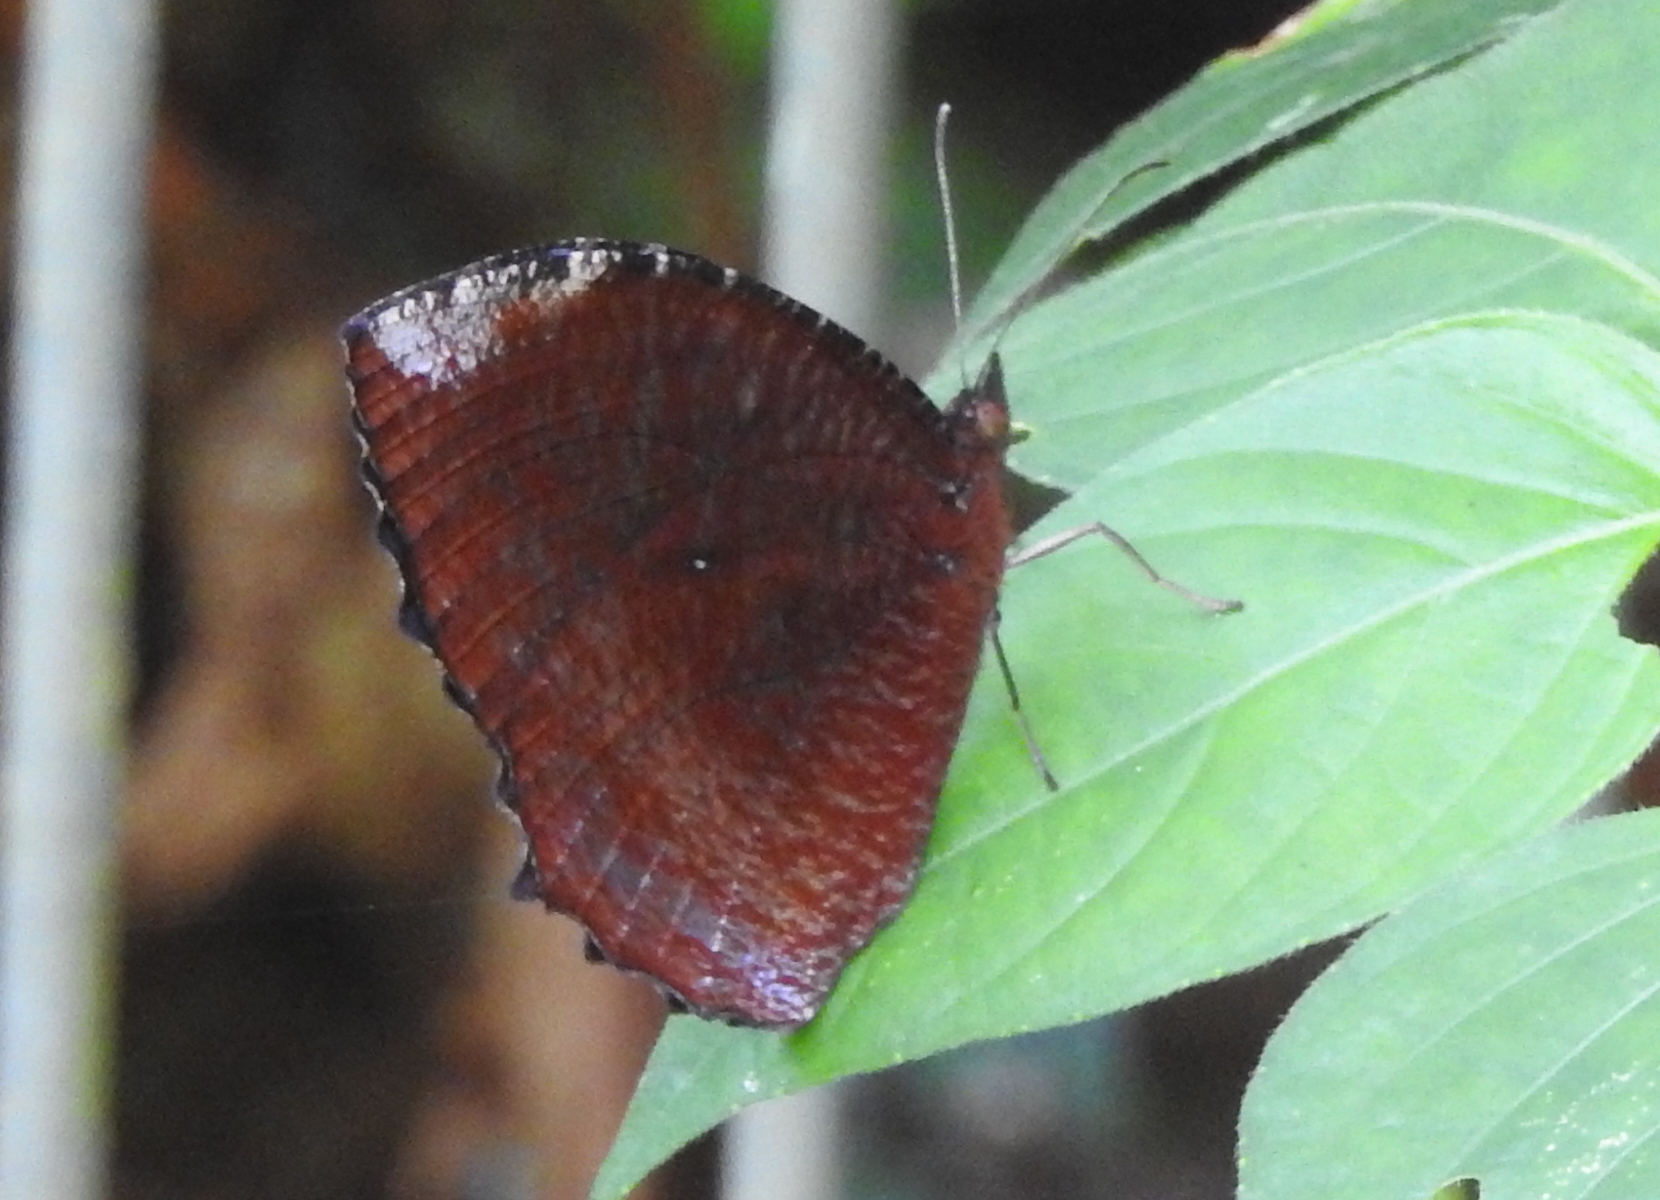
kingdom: Animalia
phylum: Arthropoda
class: Insecta
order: Lepidoptera
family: Nymphalidae
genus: Elymnias
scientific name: Elymnias hypermnestra
